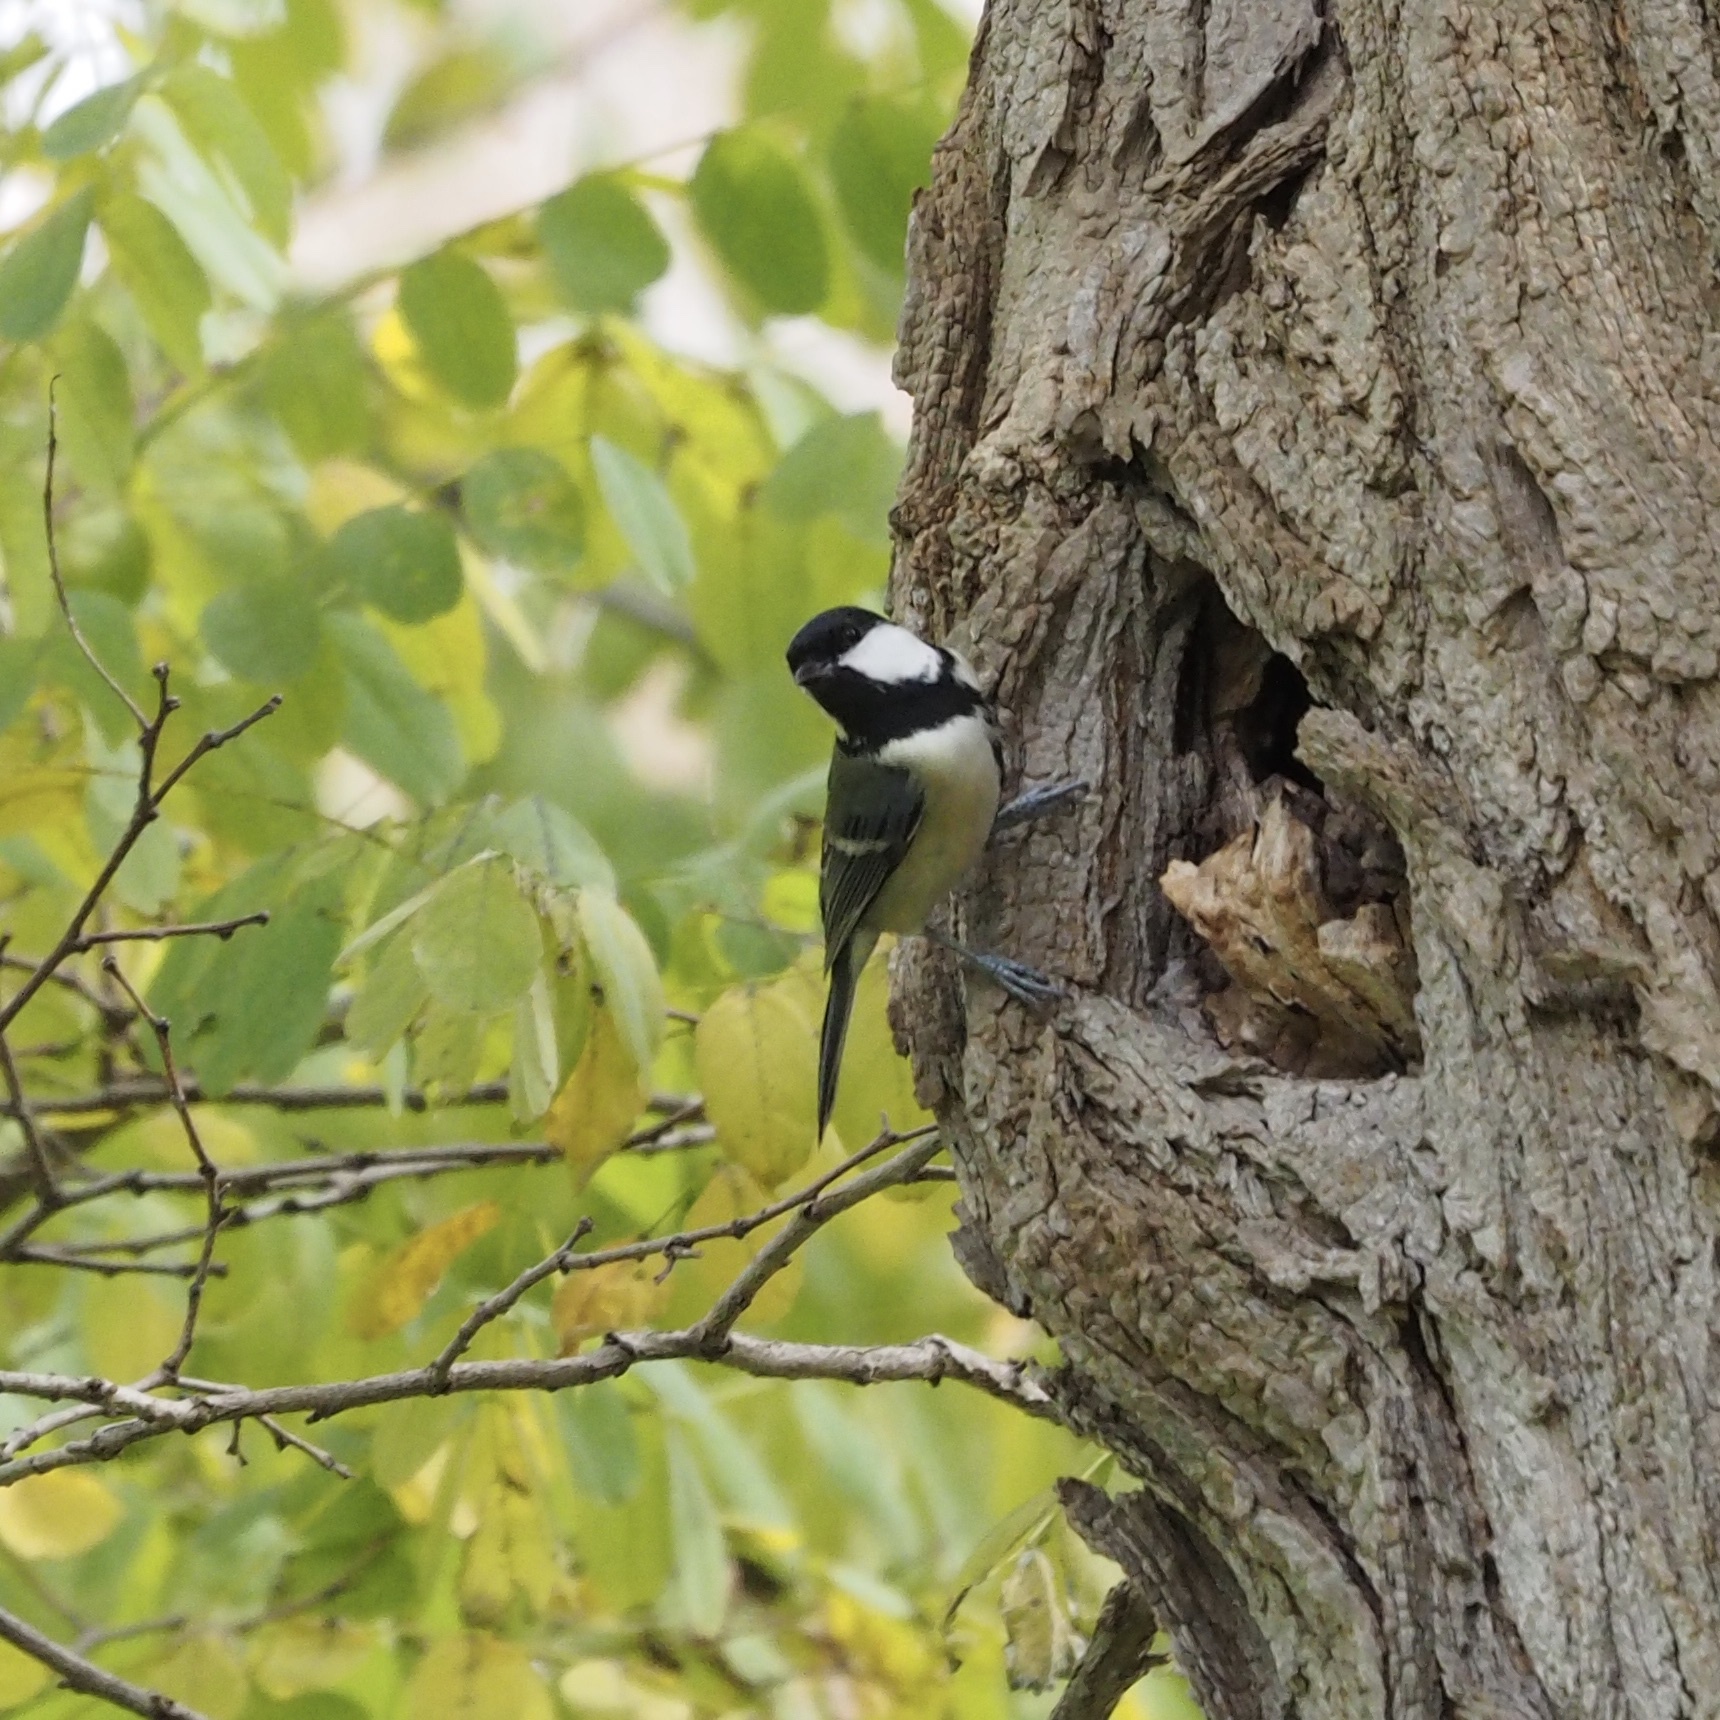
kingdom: Animalia
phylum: Chordata
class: Aves
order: Passeriformes
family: Paridae
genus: Parus
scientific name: Parus minor
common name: Japanese tit
